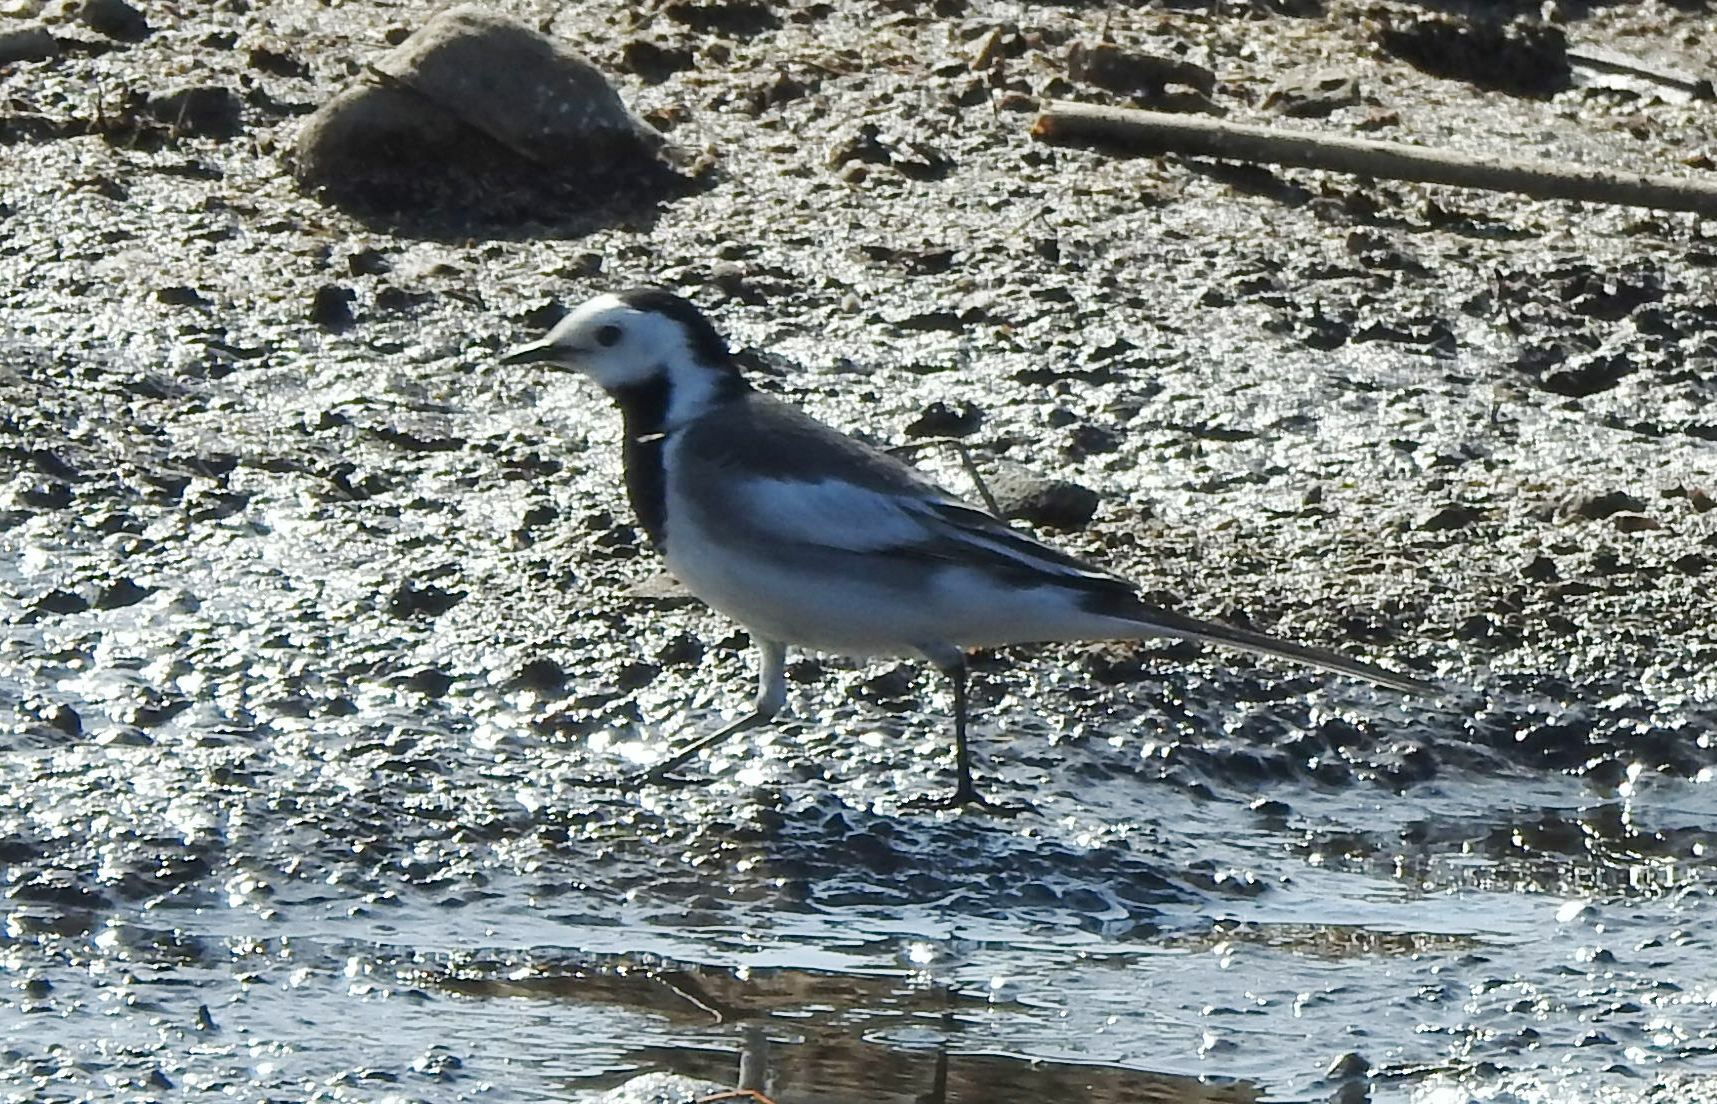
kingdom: Animalia
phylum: Chordata
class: Aves
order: Passeriformes
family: Motacillidae
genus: Motacilla
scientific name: Motacilla alba
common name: White wagtail
